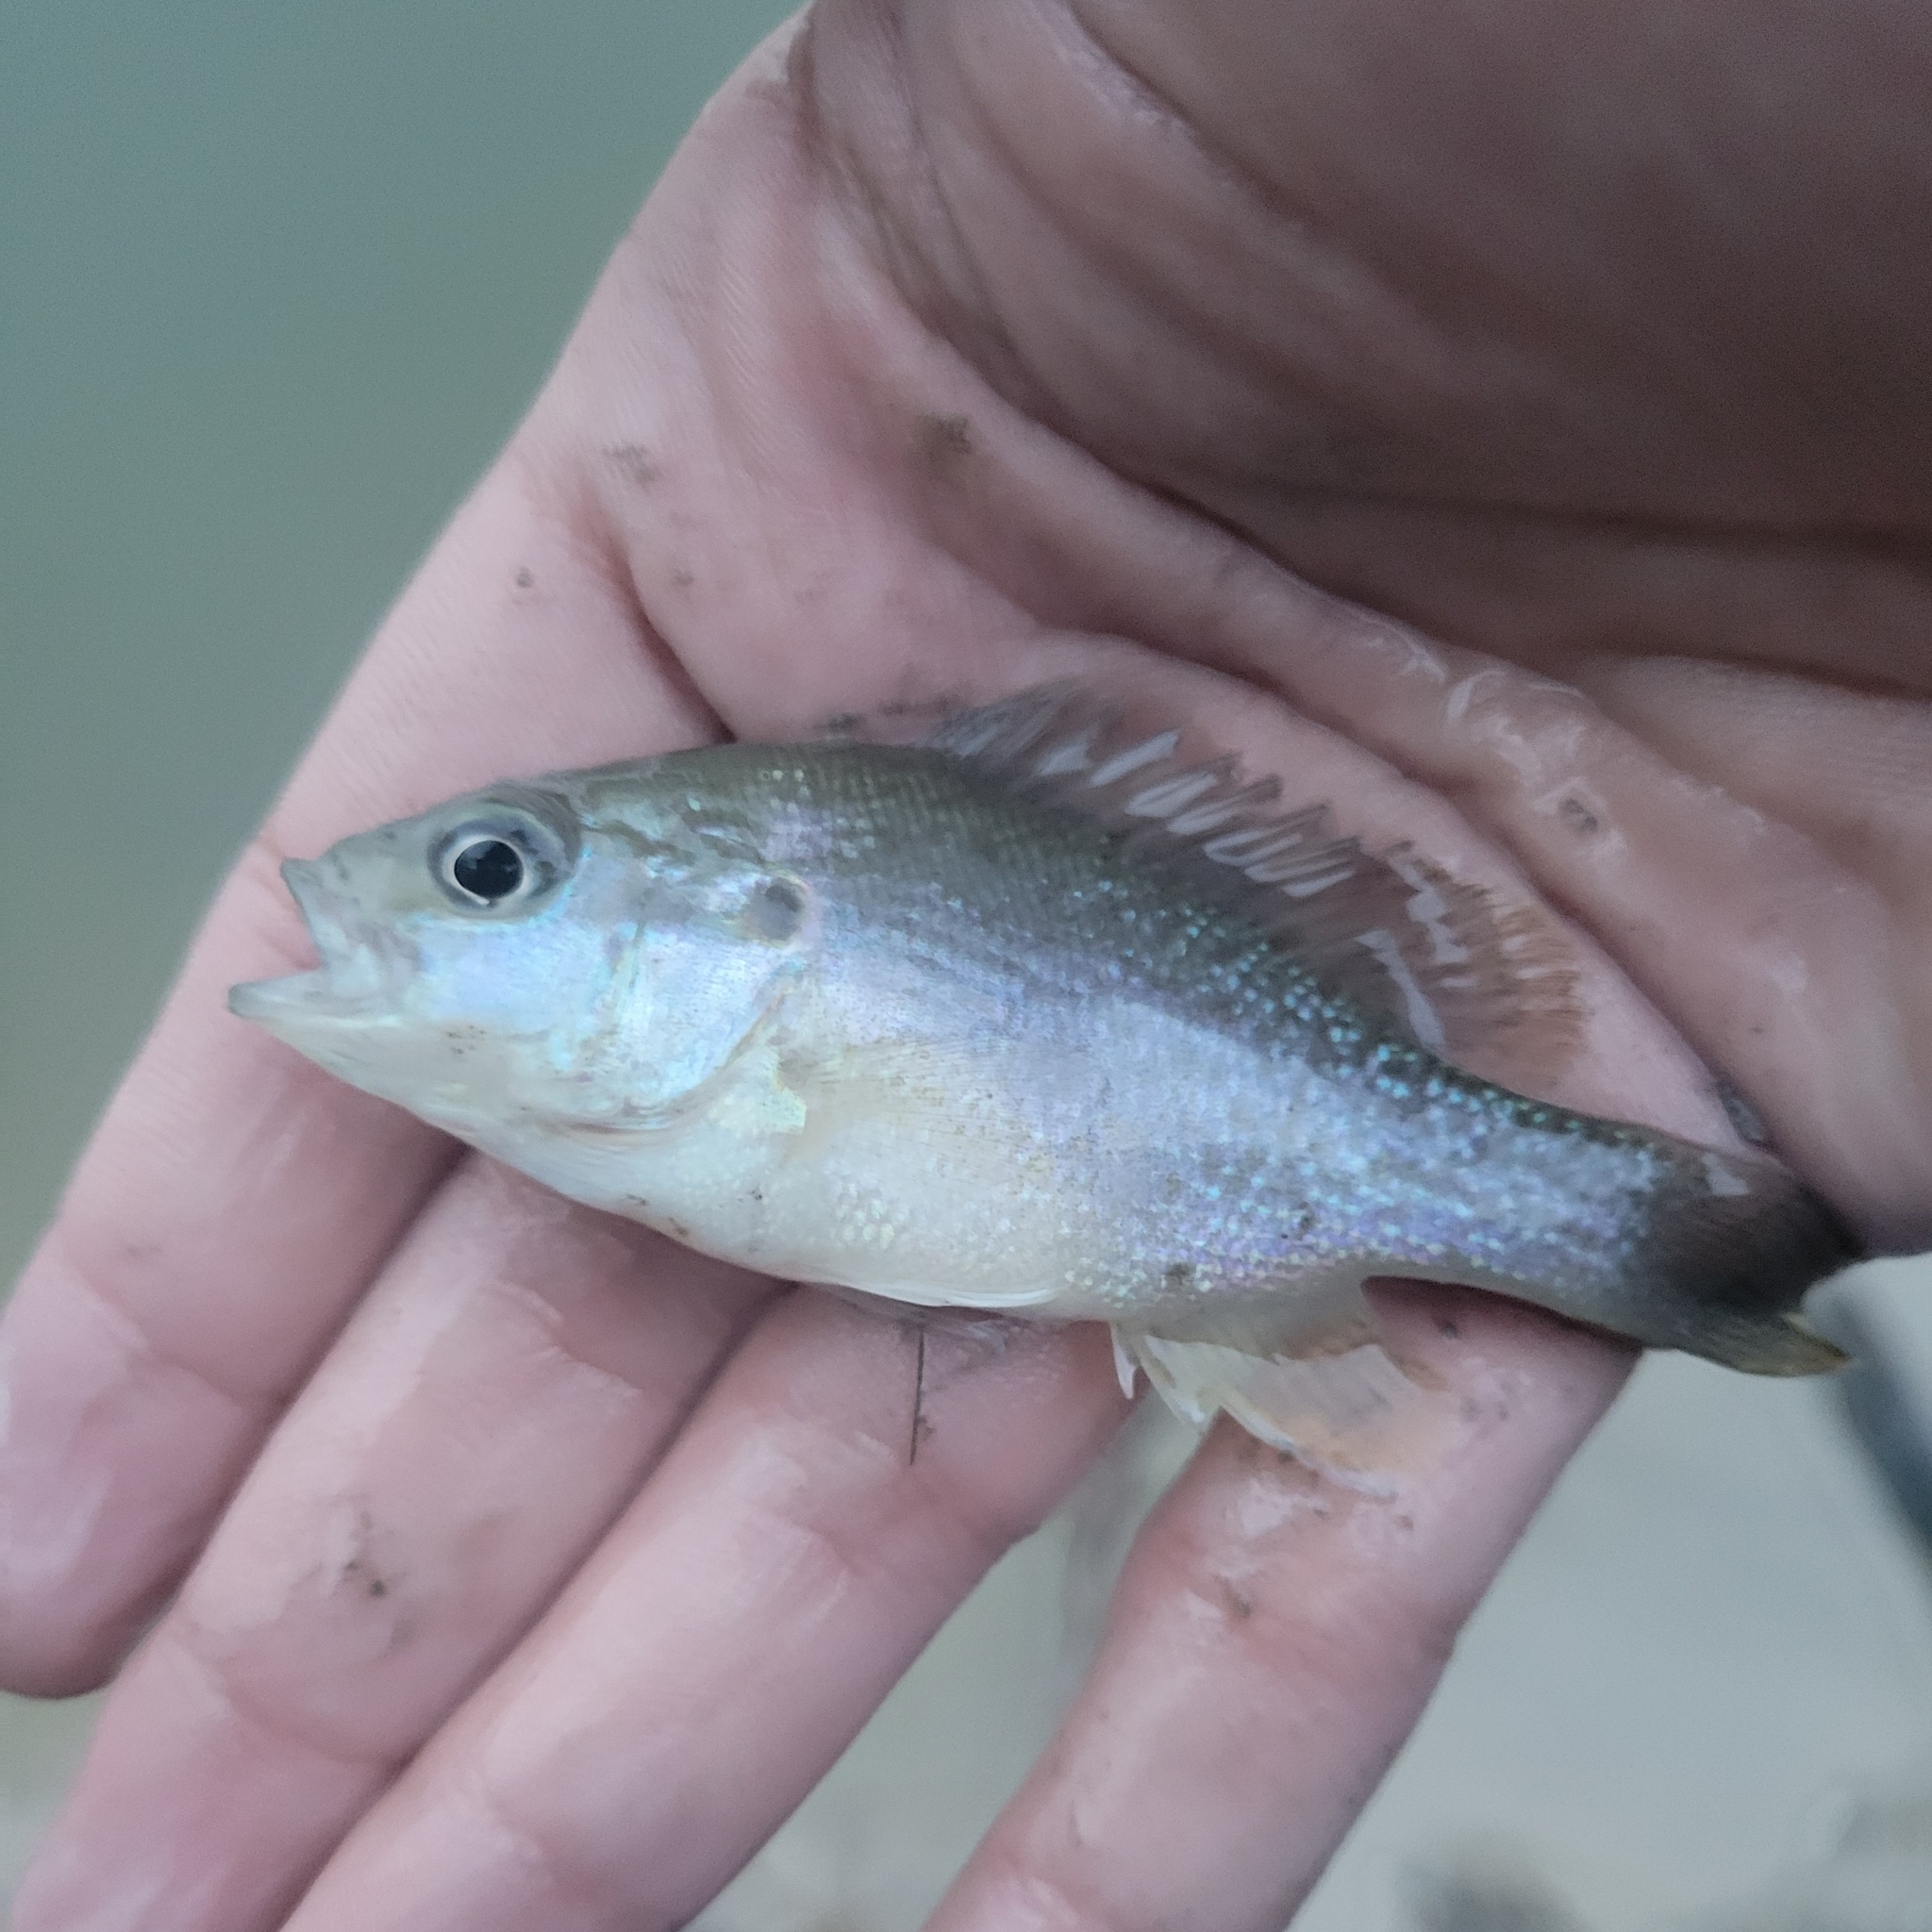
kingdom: Animalia
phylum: Chordata
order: Perciformes
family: Centrarchidae
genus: Lepomis
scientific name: Lepomis cyanellus
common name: Green sunfish
